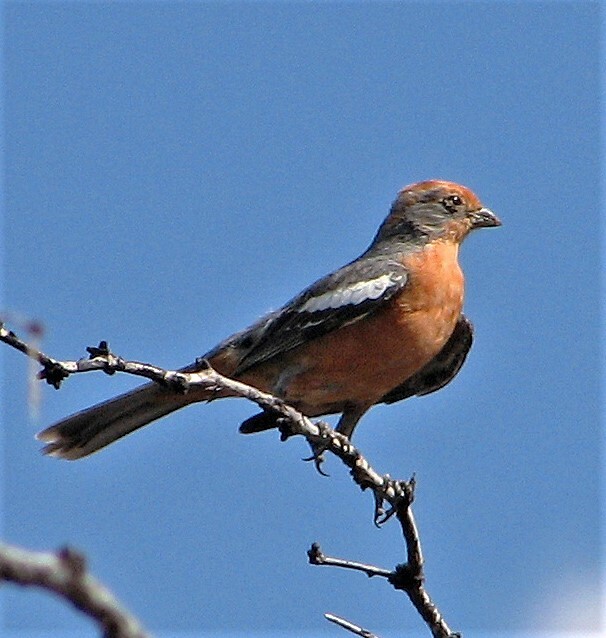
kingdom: Animalia
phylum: Chordata
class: Aves
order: Passeriformes
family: Cotingidae
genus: Phytotoma
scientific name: Phytotoma rutila
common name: White-tipped plantcutter
